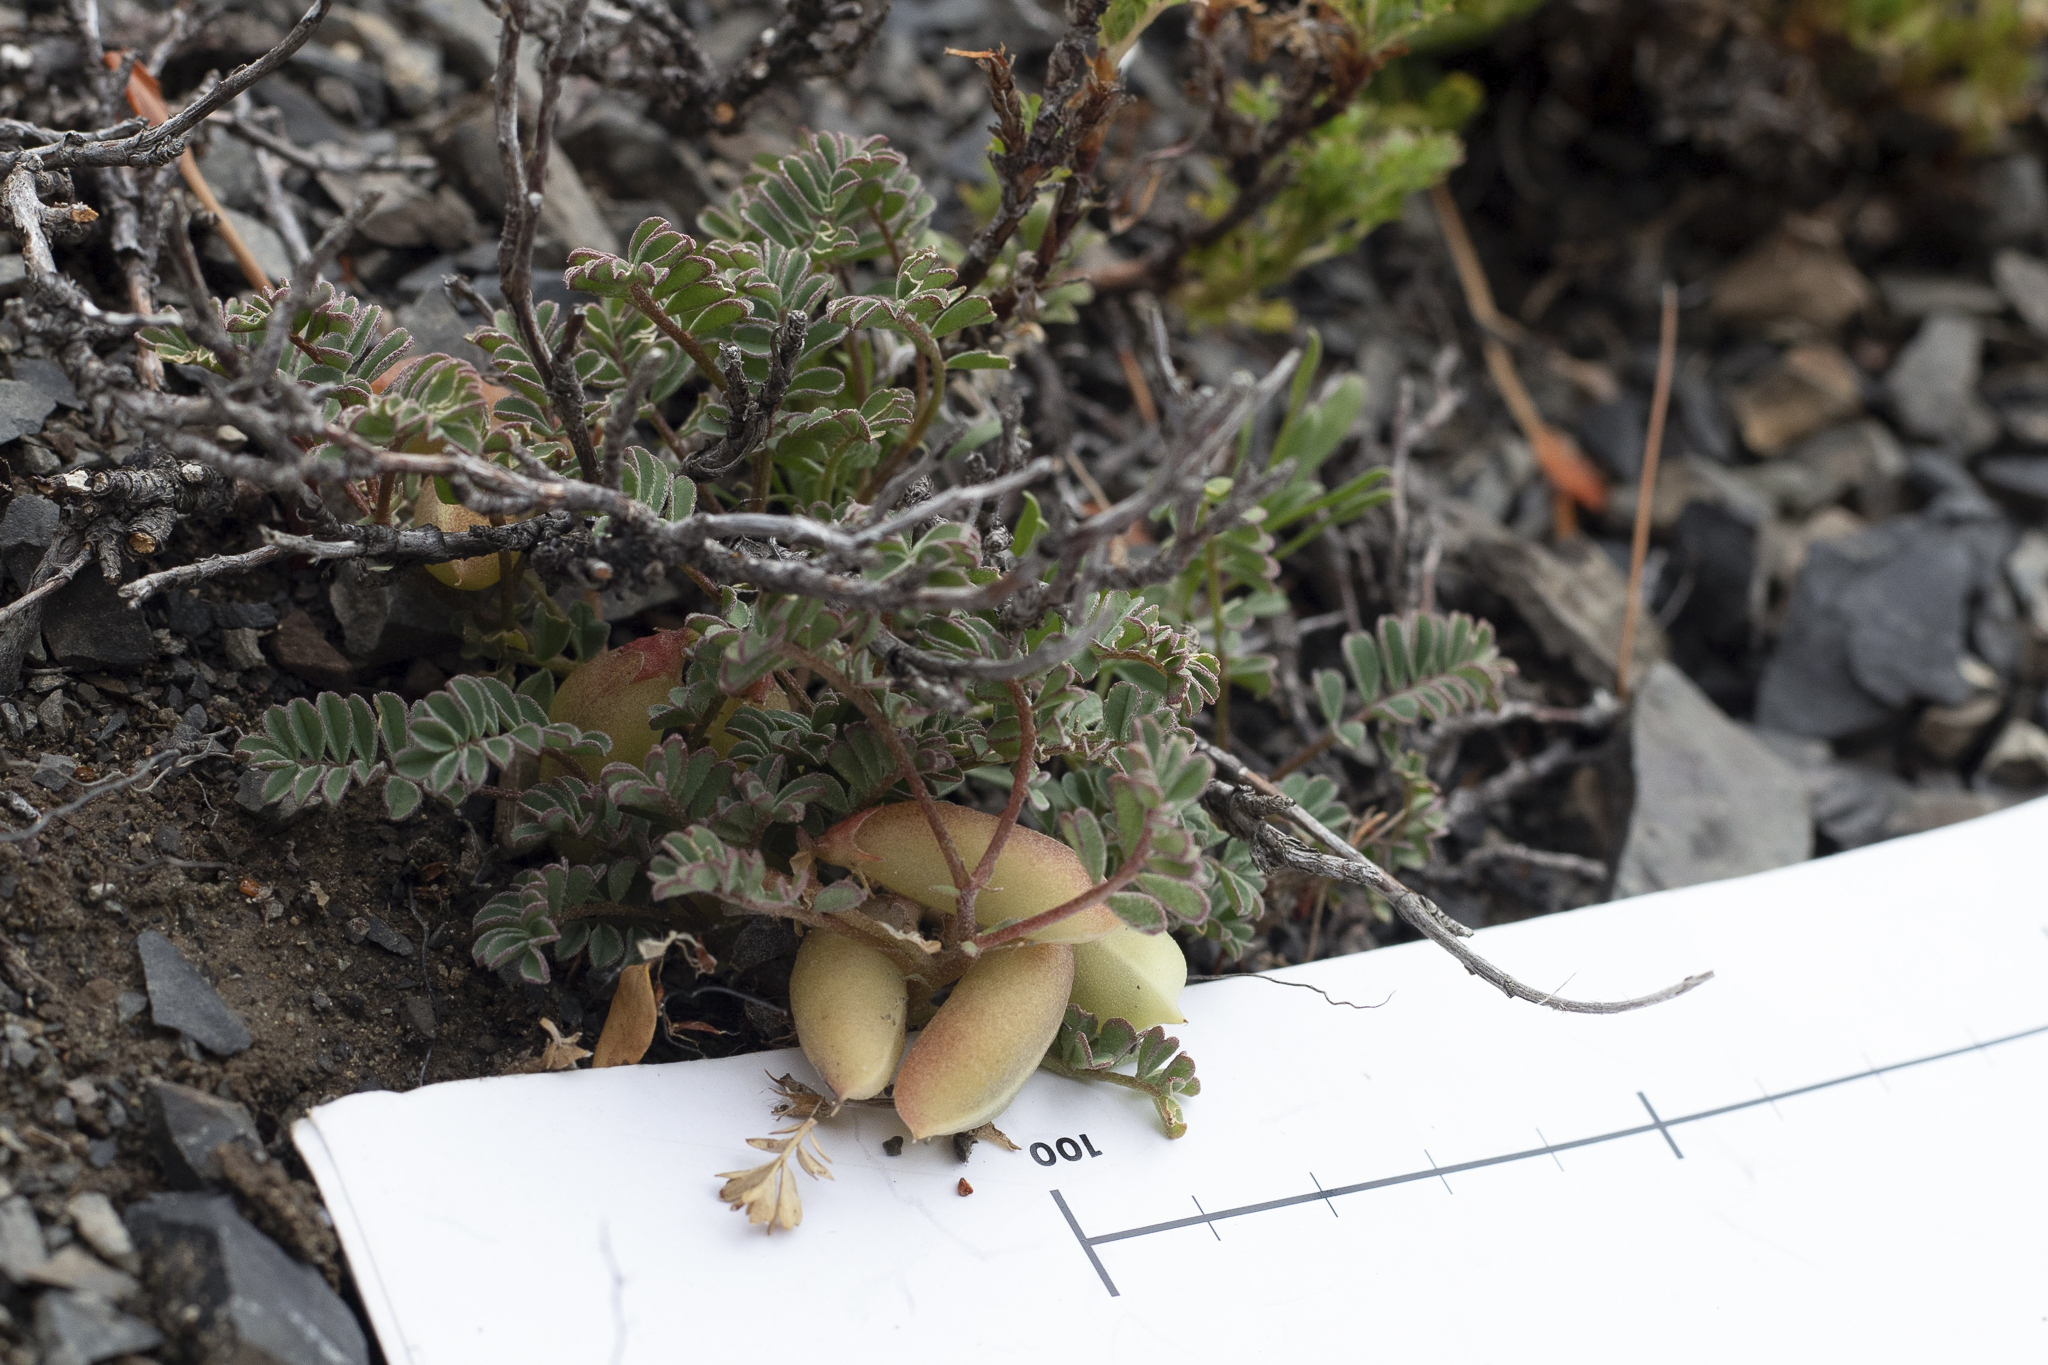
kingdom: Plantae
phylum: Tracheophyta
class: Magnoliopsida
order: Fabales
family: Fabaceae
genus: Montigena
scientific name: Montigena novae-zelandiae
